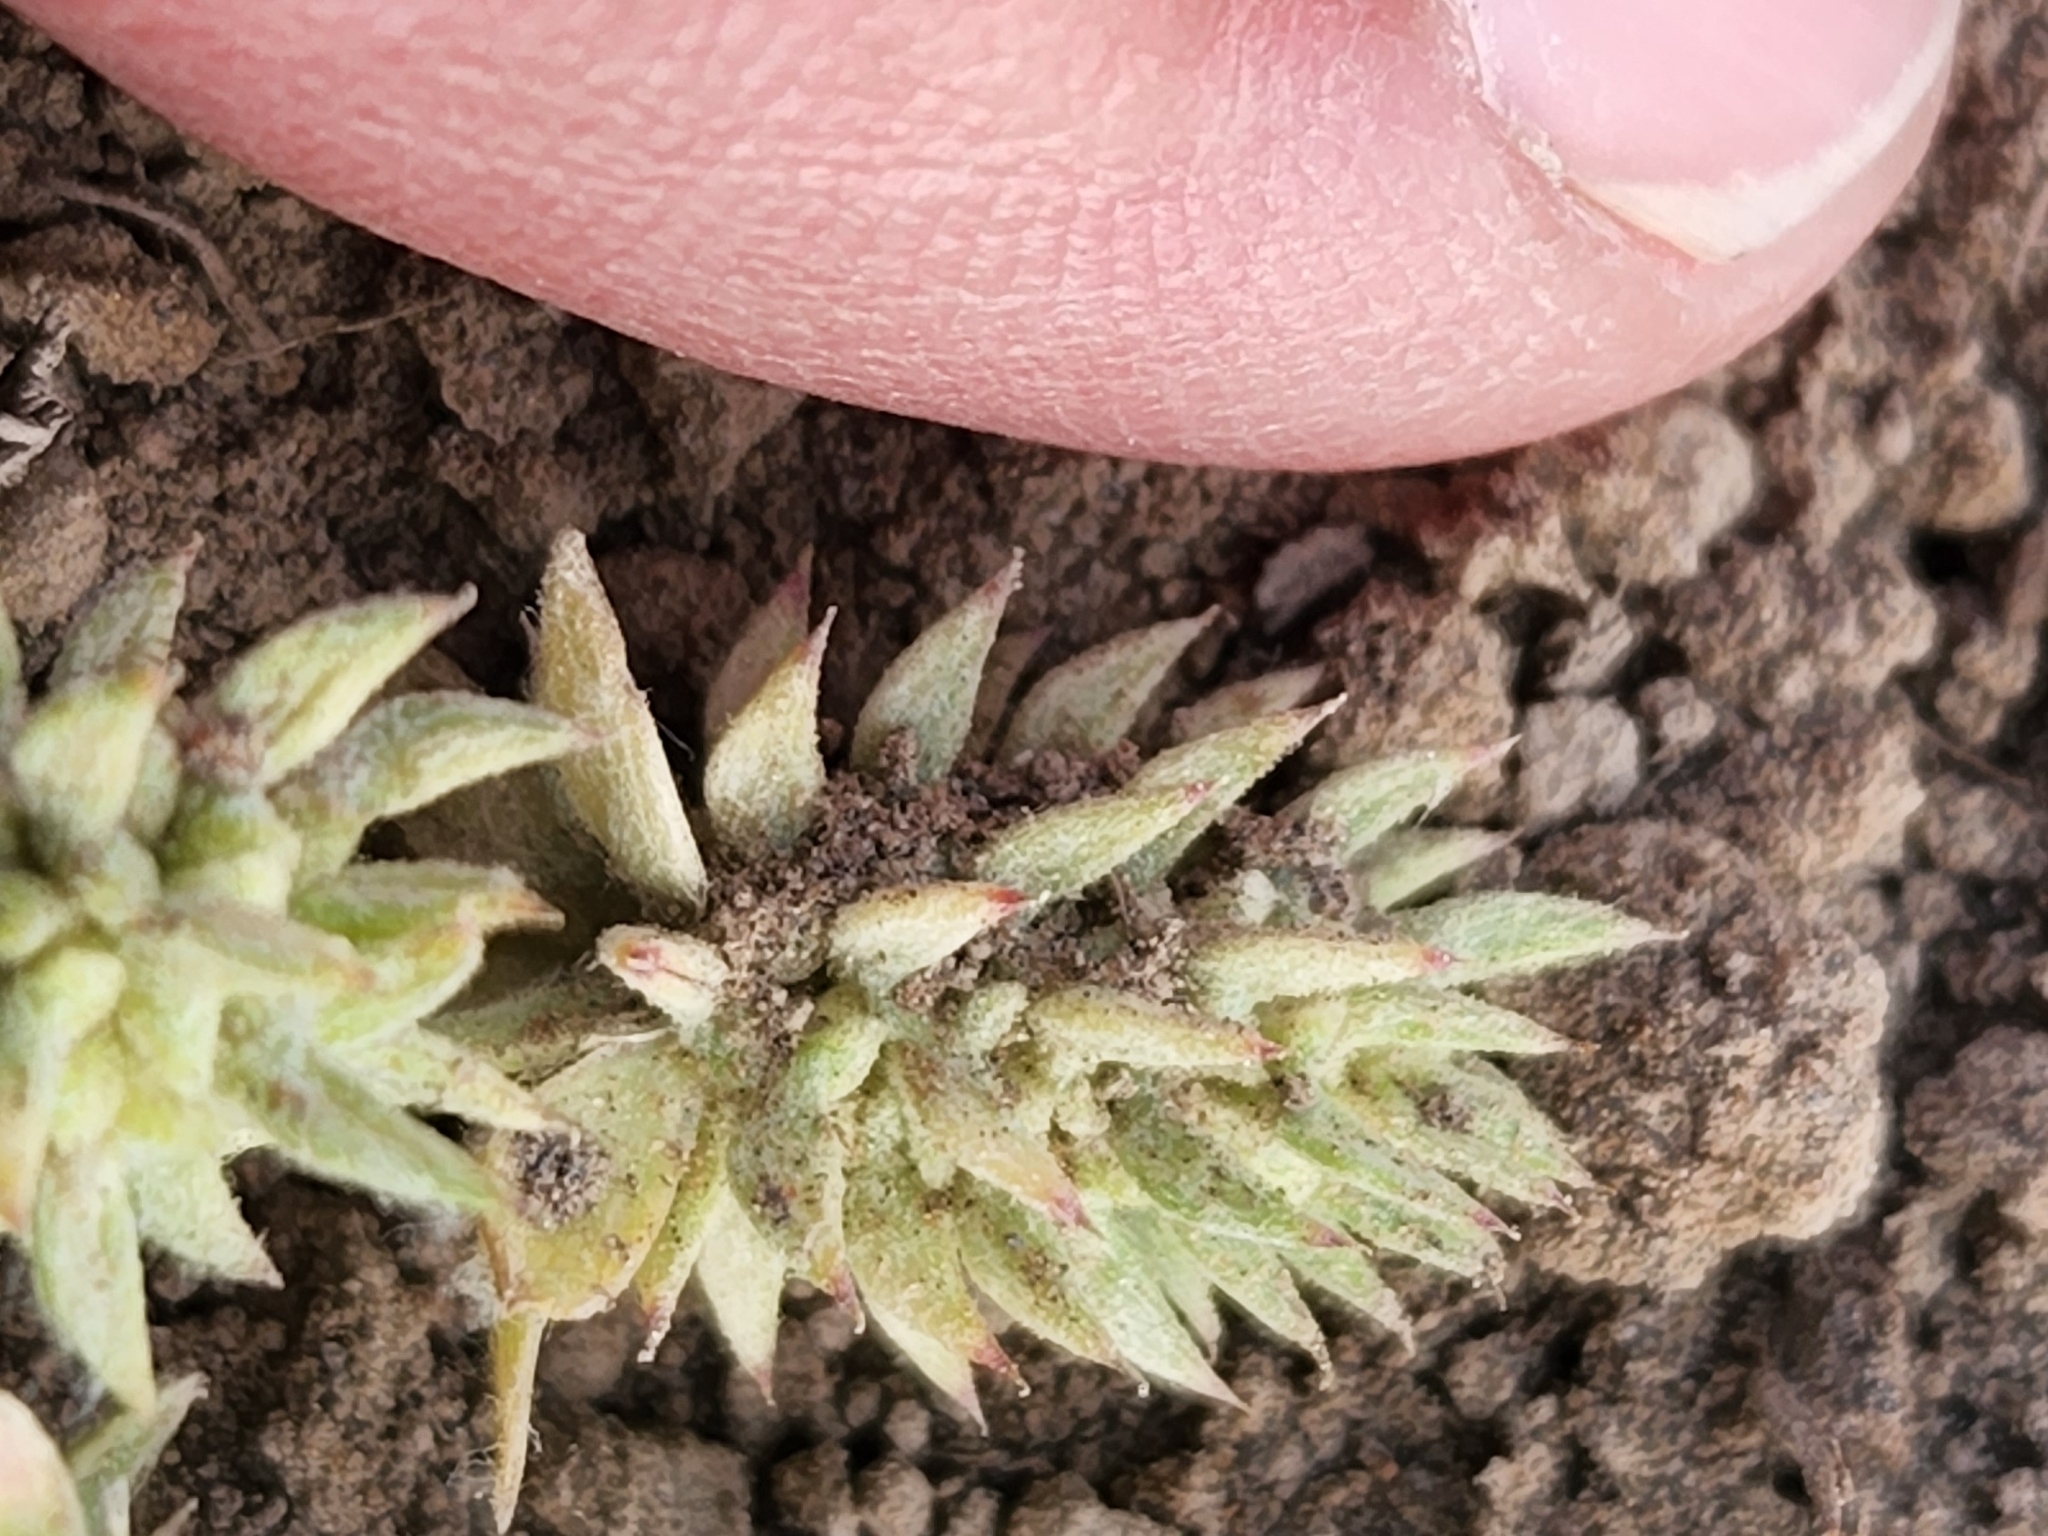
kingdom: Plantae
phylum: Tracheophyta
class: Magnoliopsida
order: Ranunculales
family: Ranunculaceae
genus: Ceratocephala
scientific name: Ceratocephala orthoceras
